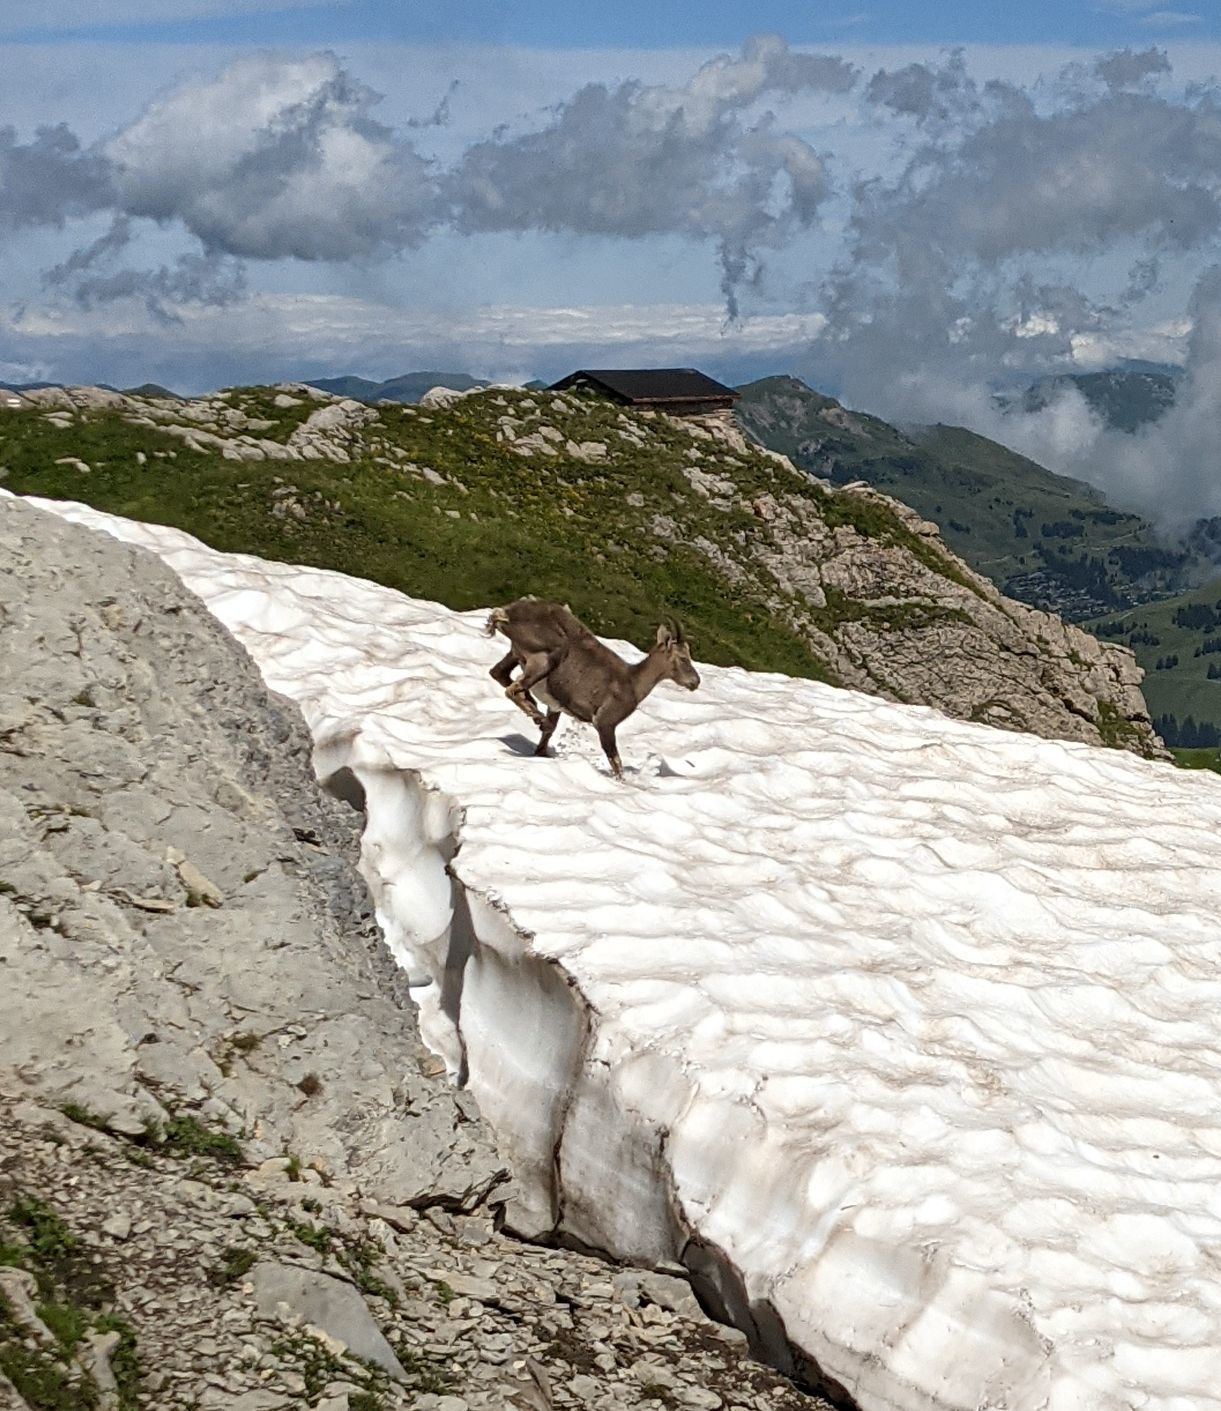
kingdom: Animalia
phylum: Chordata
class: Mammalia
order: Artiodactyla
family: Bovidae
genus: Capra
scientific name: Capra ibex
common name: Alpine ibex
